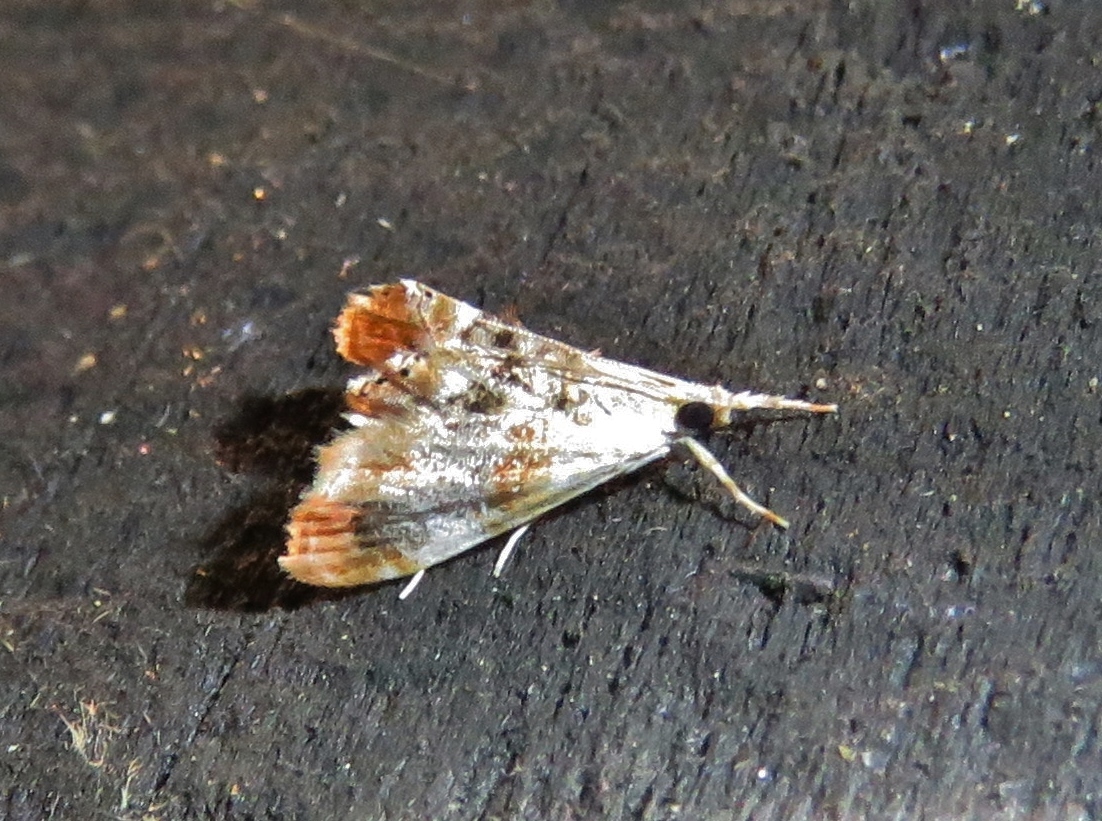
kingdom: Animalia
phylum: Arthropoda
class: Insecta
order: Lepidoptera
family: Crambidae
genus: Dicymolomia
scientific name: Dicymolomia julianalis
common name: Julia's dicymolomia moth
